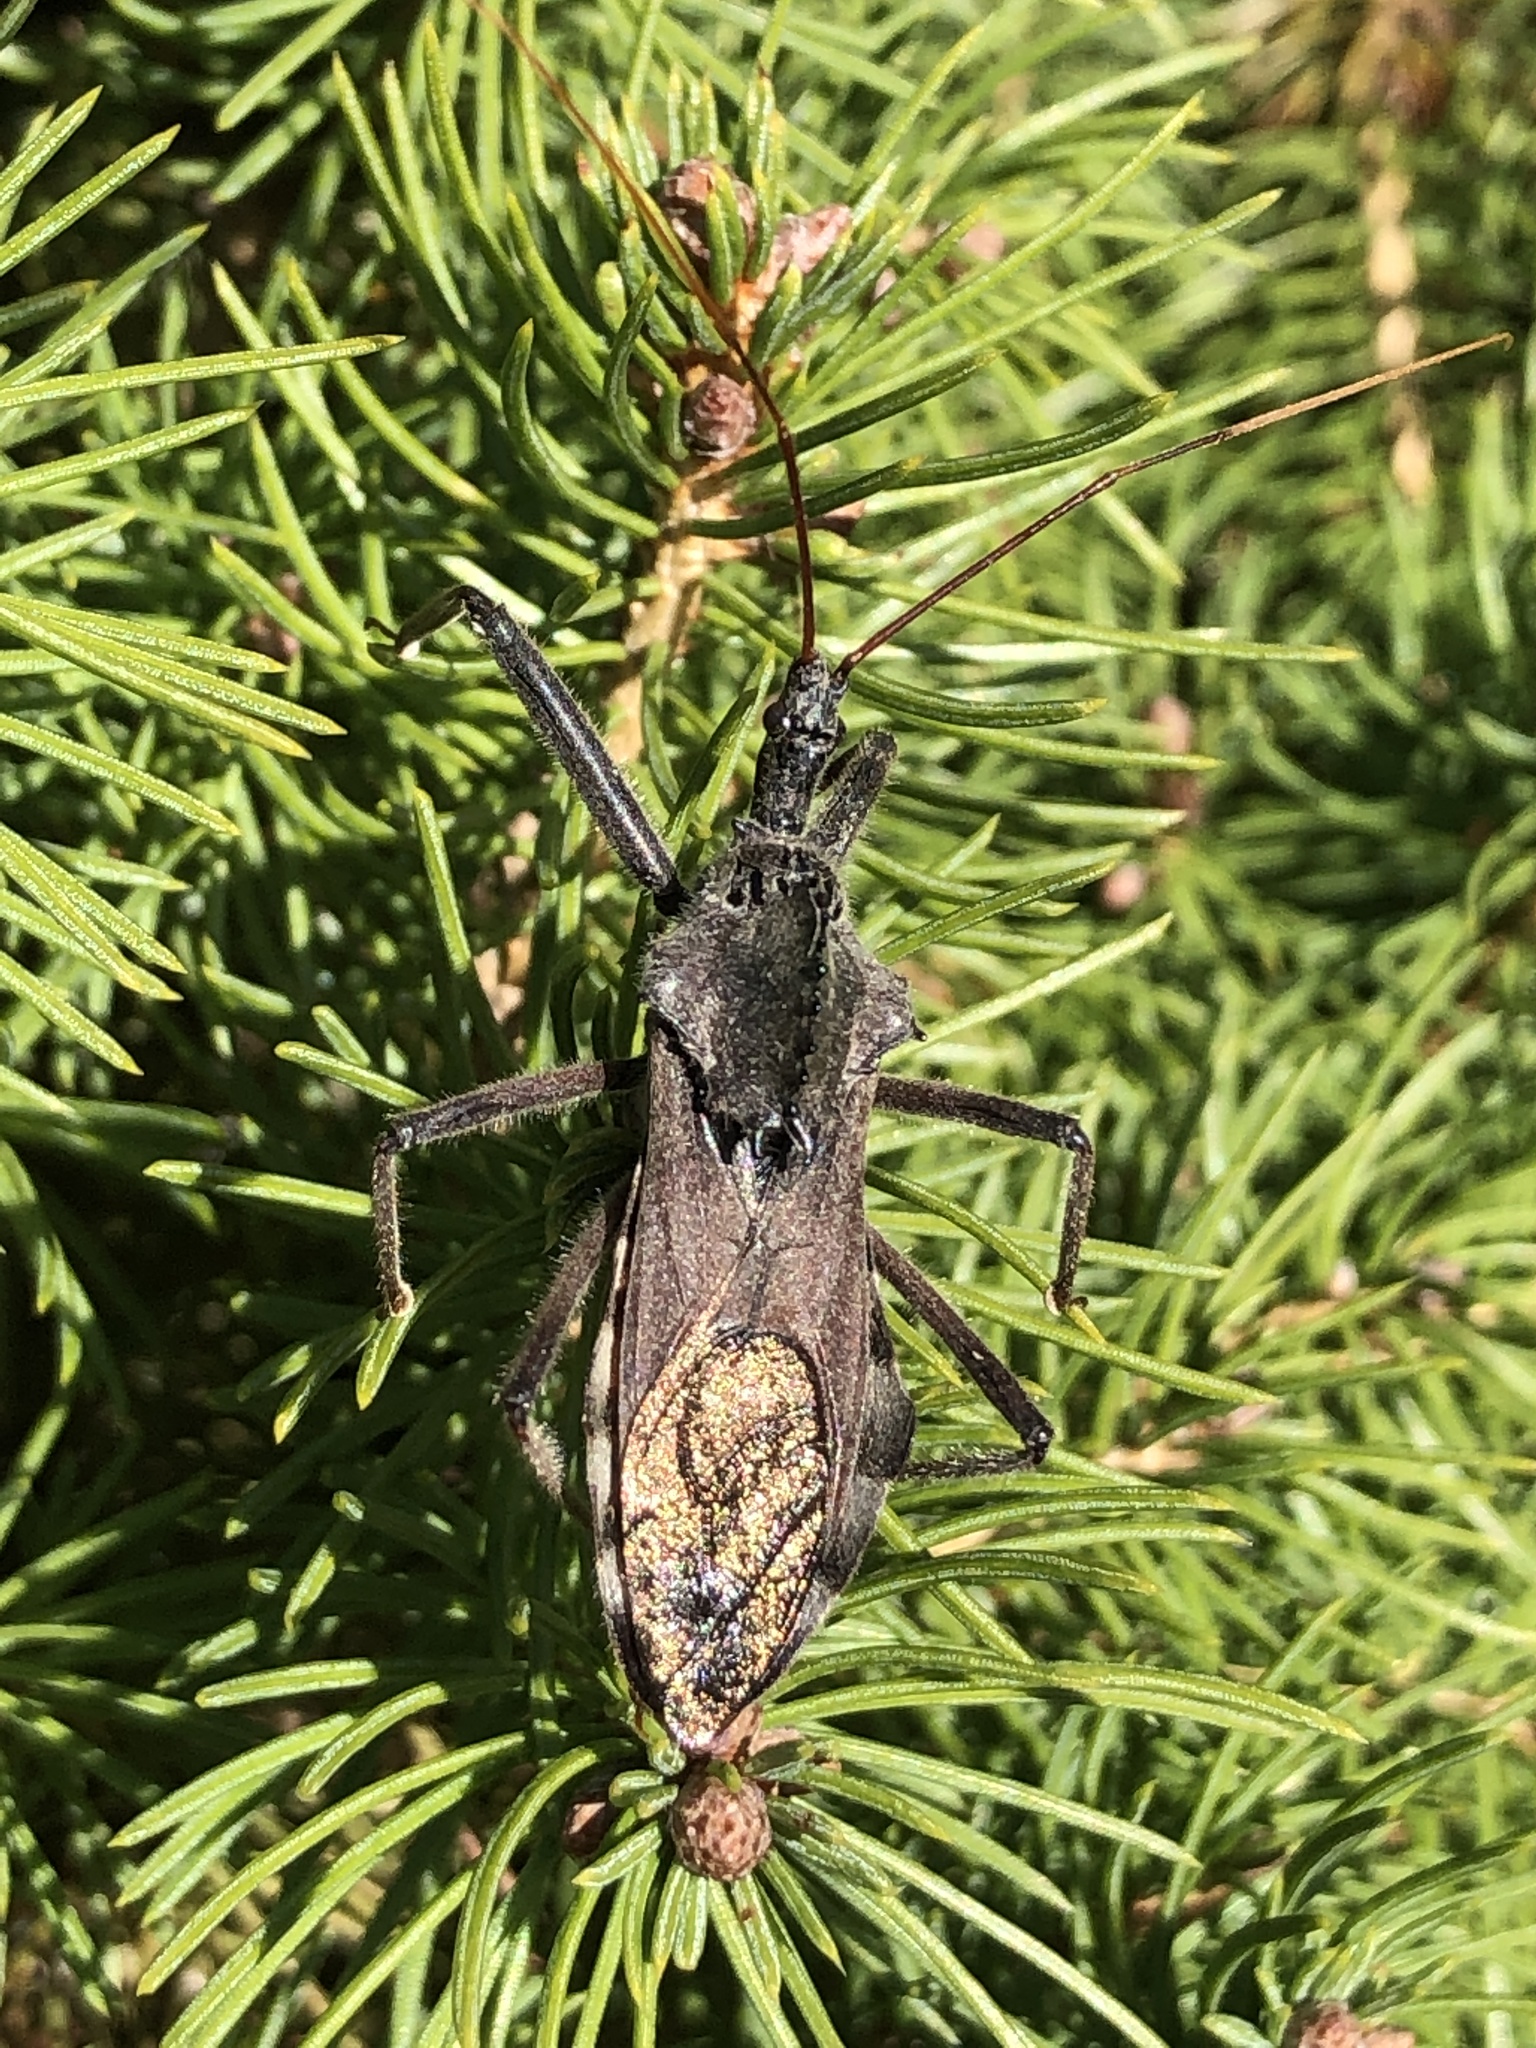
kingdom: Animalia
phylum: Arthropoda
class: Insecta
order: Hemiptera
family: Reduviidae
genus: Arilus
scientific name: Arilus cristatus
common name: North american wheel bug
